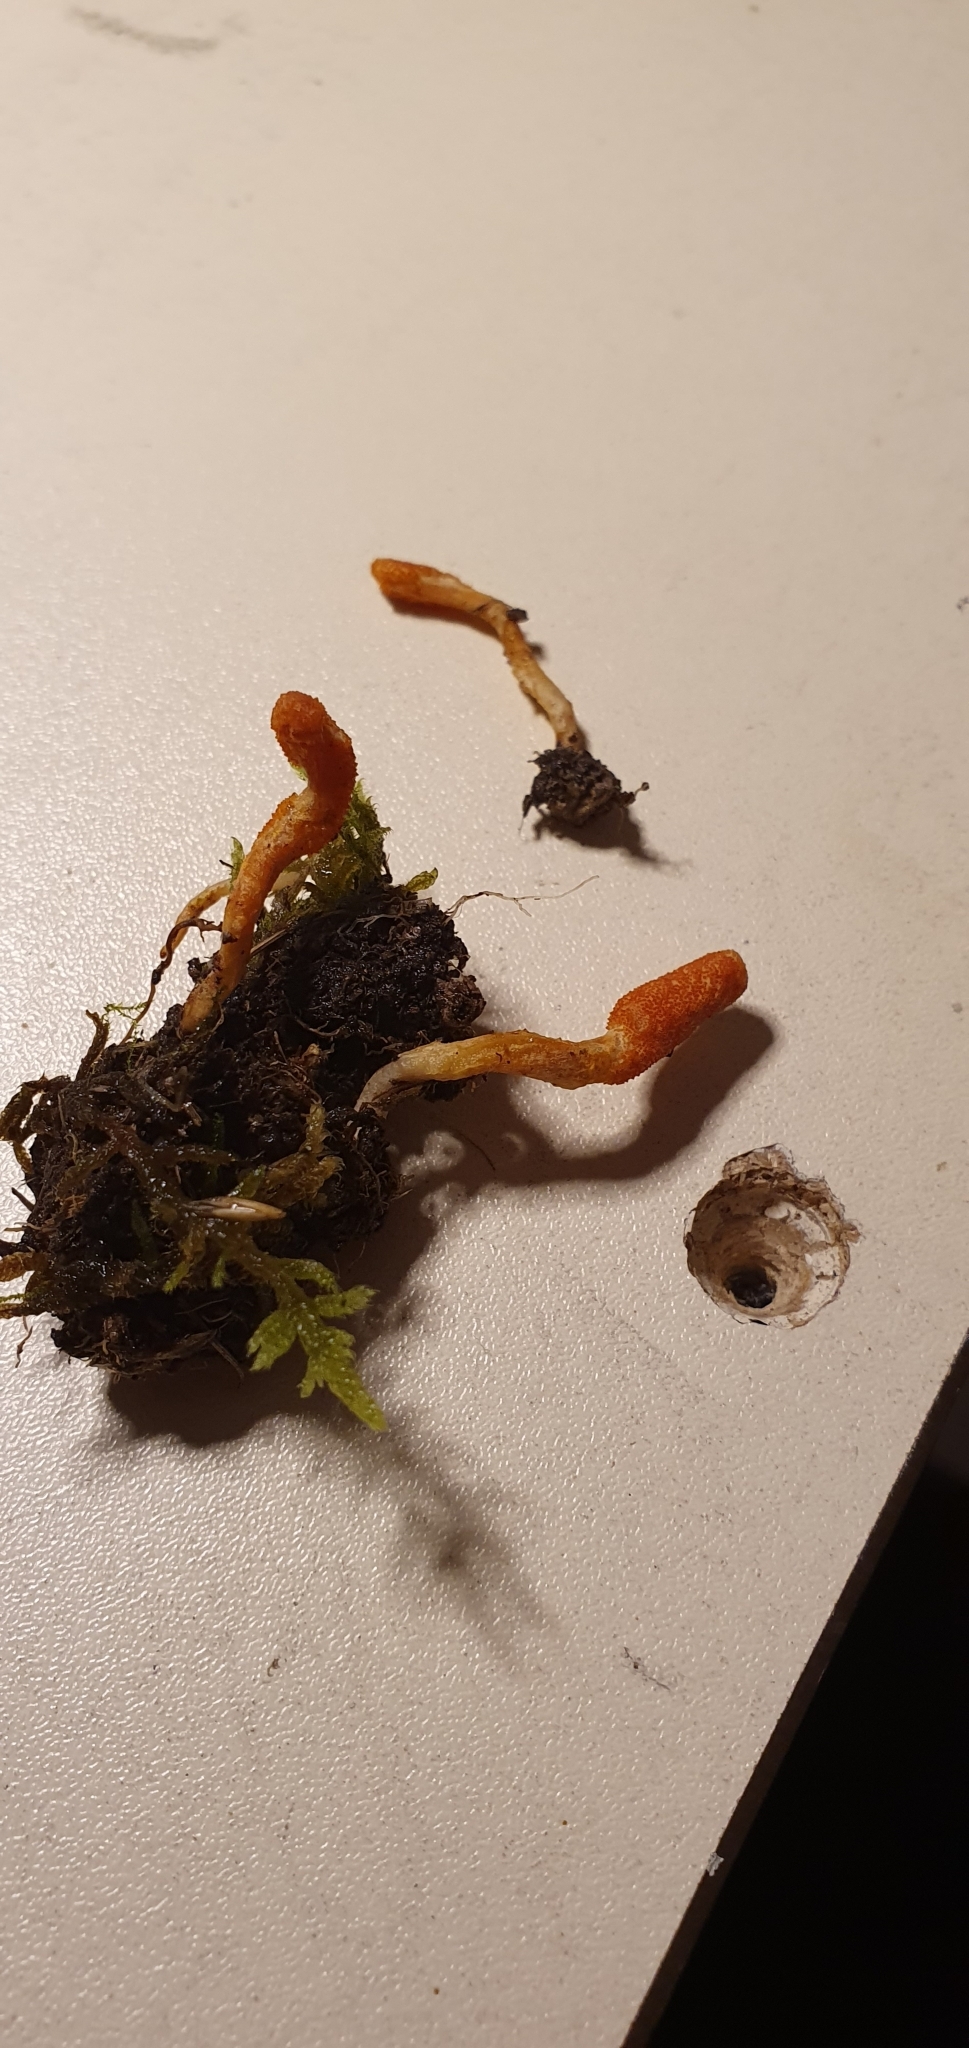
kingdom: Fungi
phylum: Ascomycota
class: Sordariomycetes
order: Hypocreales
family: Cordycipitaceae
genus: Cordyceps
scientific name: Cordyceps militaris
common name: Scarlet caterpillar fungus
